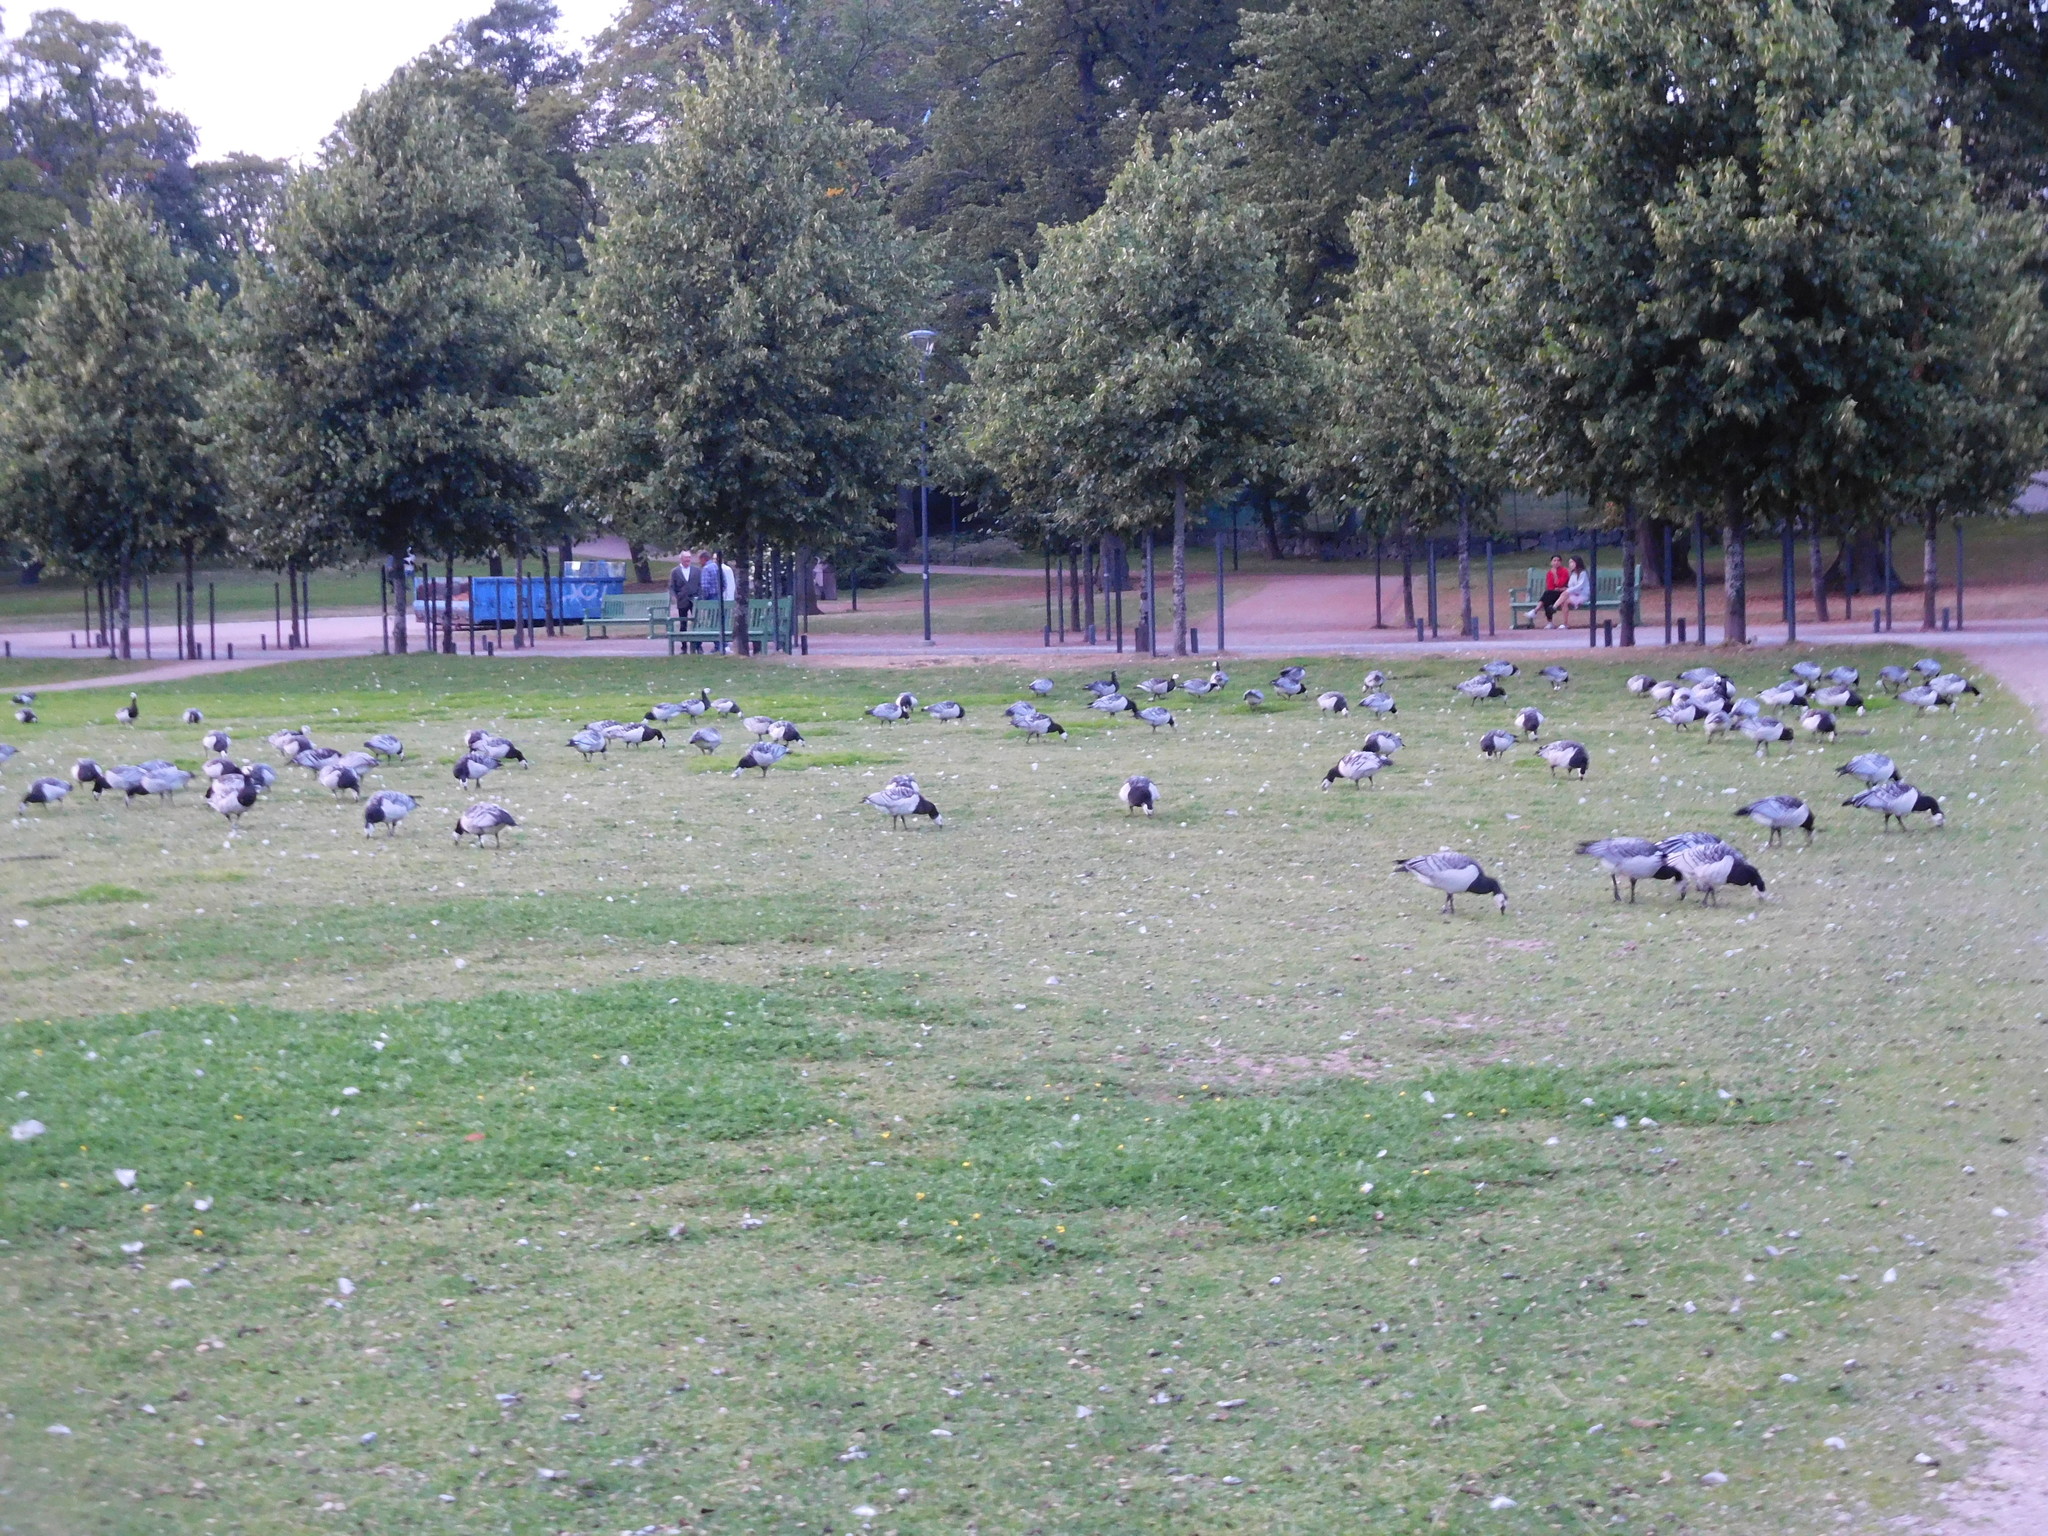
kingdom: Animalia
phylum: Chordata
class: Aves
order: Anseriformes
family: Anatidae
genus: Branta
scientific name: Branta leucopsis
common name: Barnacle goose
